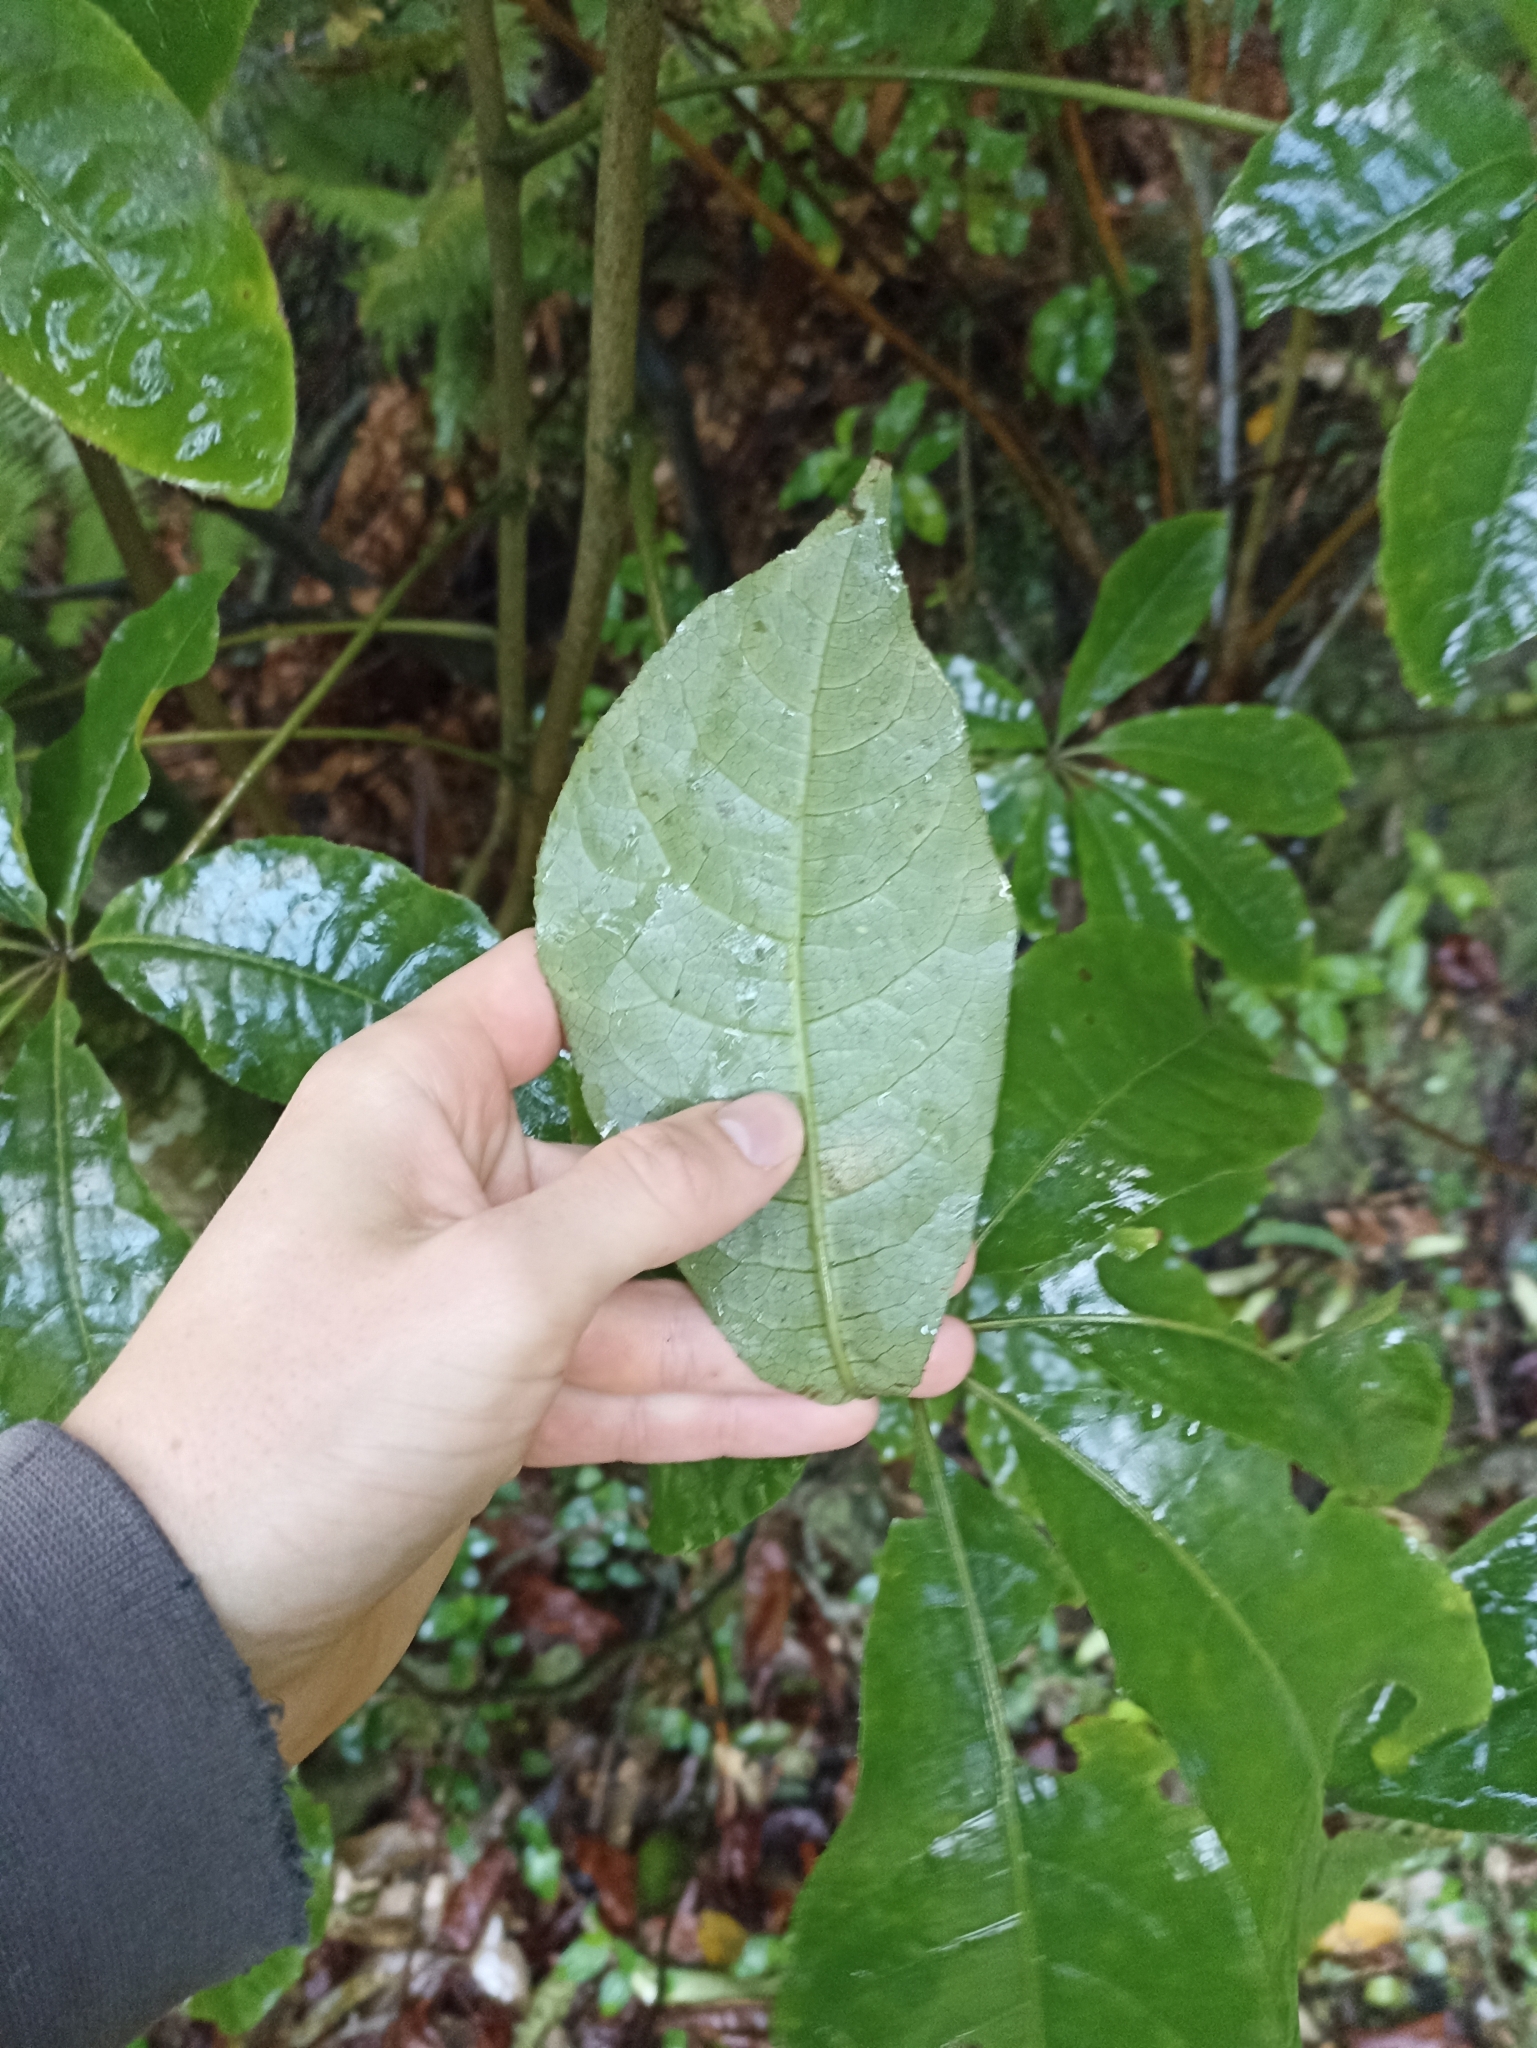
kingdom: Plantae
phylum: Tracheophyta
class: Magnoliopsida
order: Apiales
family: Araliaceae
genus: Schefflera
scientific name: Schefflera digitata
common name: Pate
